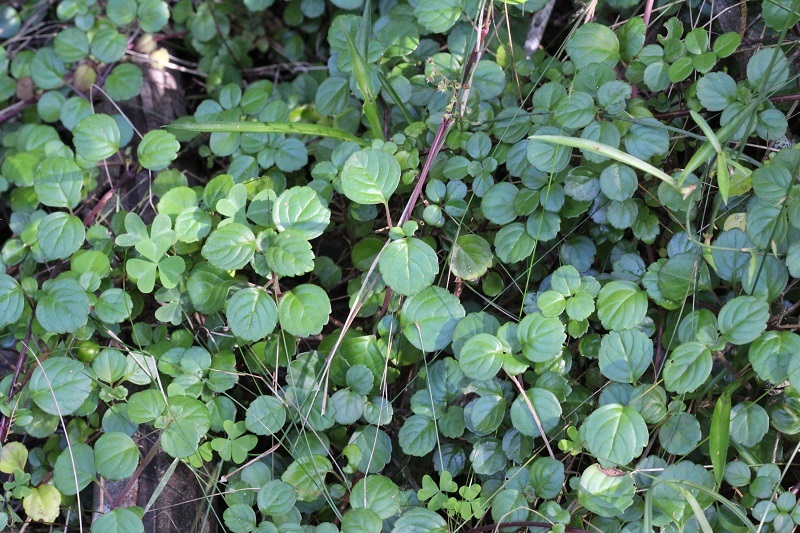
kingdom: Plantae
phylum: Tracheophyta
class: Magnoliopsida
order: Lamiales
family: Lamiaceae
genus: Plectranthus
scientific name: Plectranthus verticillatus
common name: Whorled plectranthus
